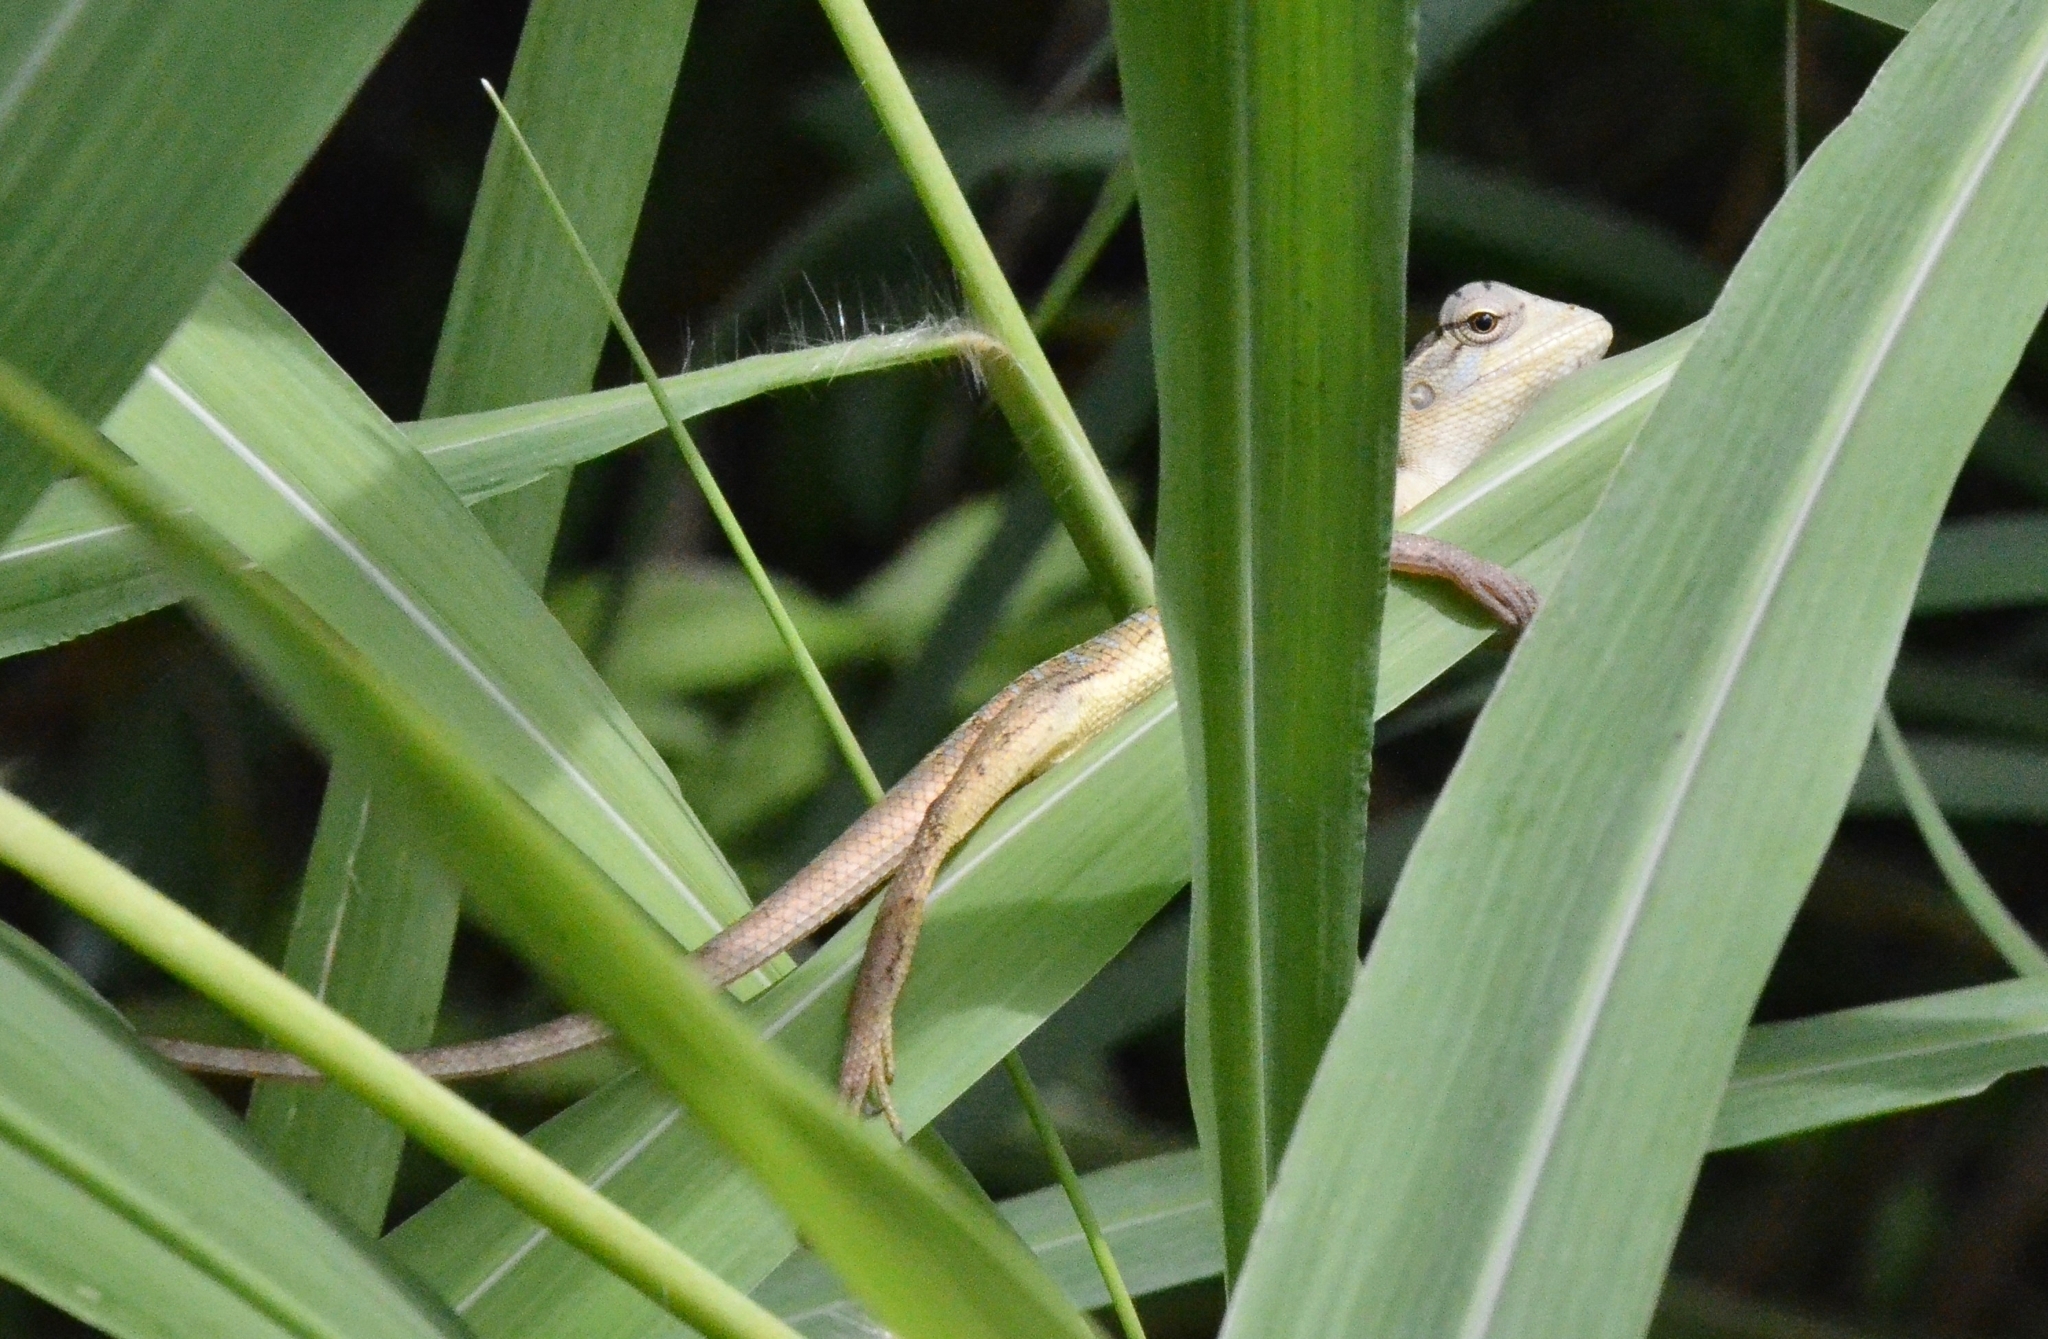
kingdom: Animalia
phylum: Chordata
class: Squamata
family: Agamidae
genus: Calotes
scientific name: Calotes versicolor
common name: Oriental garden lizard
